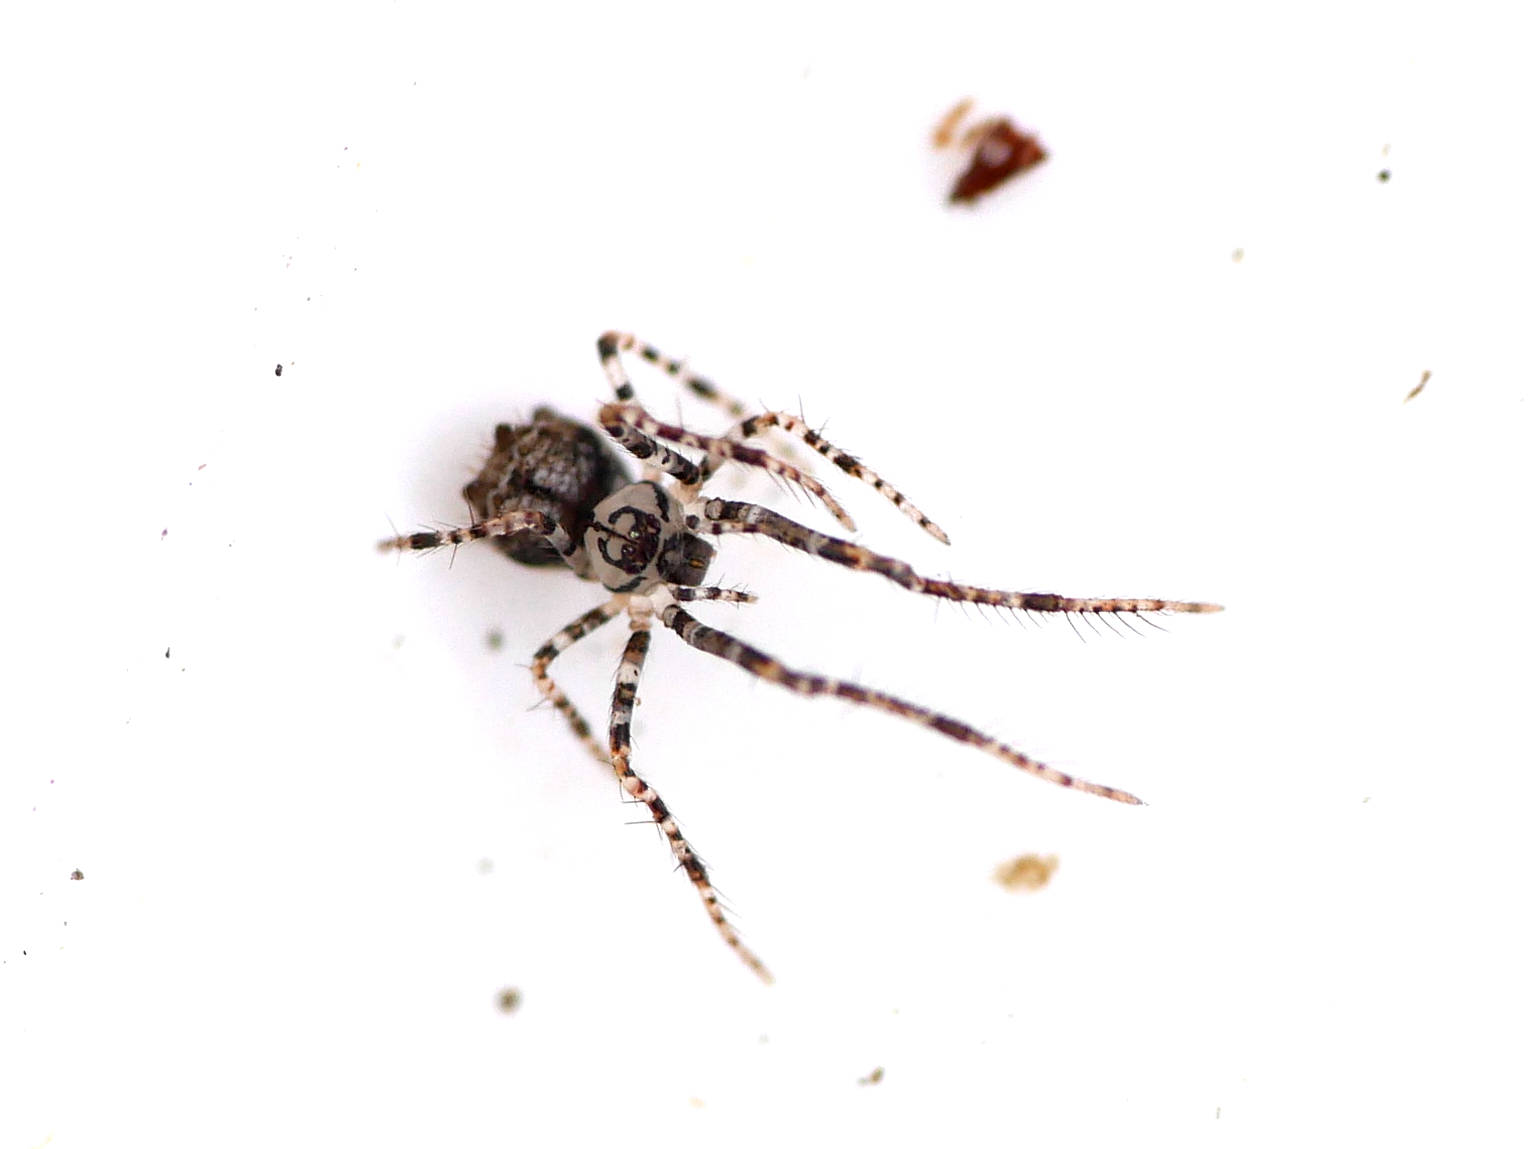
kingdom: Animalia
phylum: Arthropoda
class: Arachnida
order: Araneae
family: Mimetidae
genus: Ero
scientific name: Ero aphana
